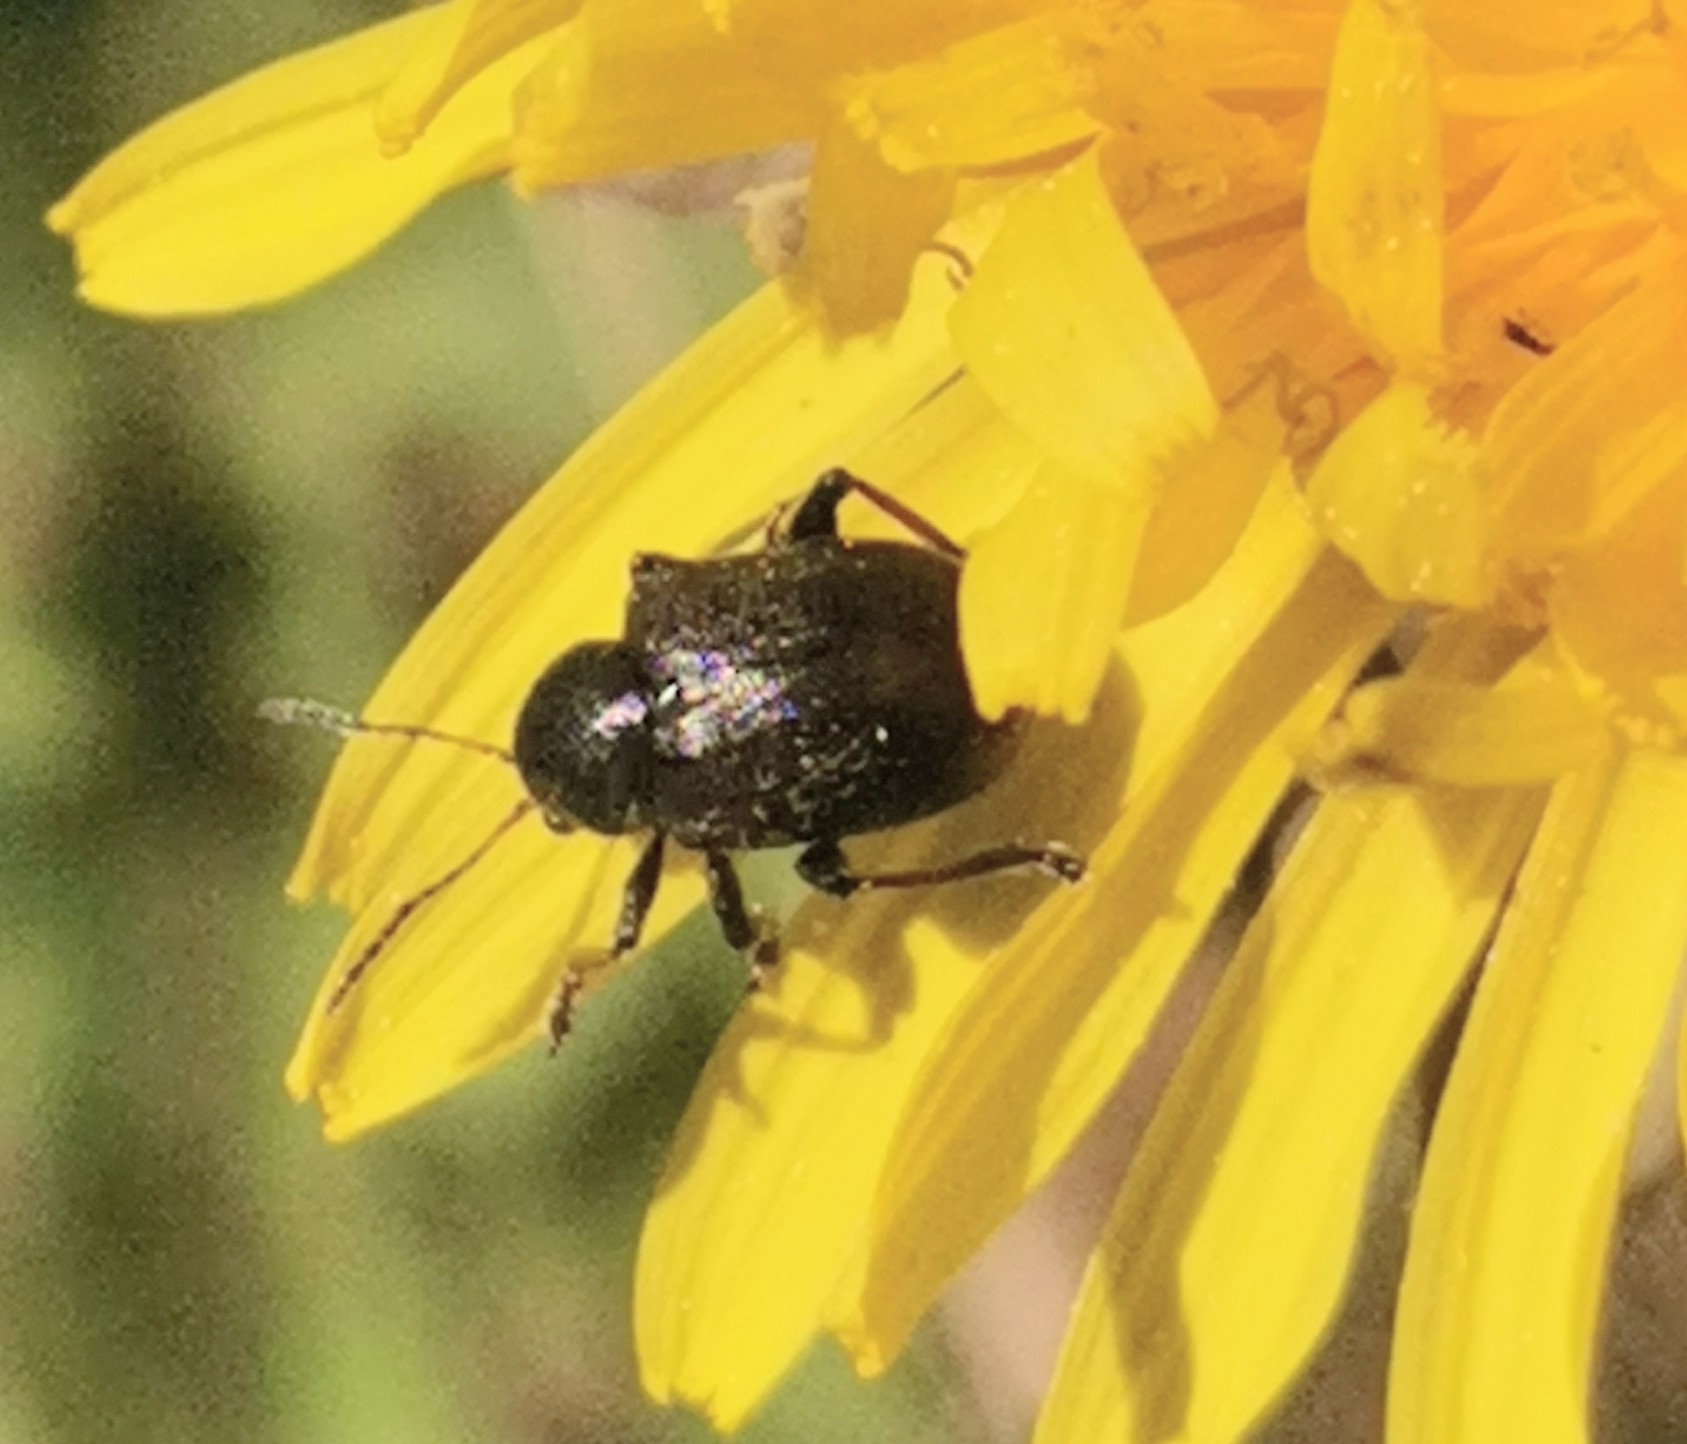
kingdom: Animalia
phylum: Arthropoda
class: Insecta
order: Coleoptera
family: Chrysomelidae
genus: Bromius
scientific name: Bromius obscurus
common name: Western grape rootworm
